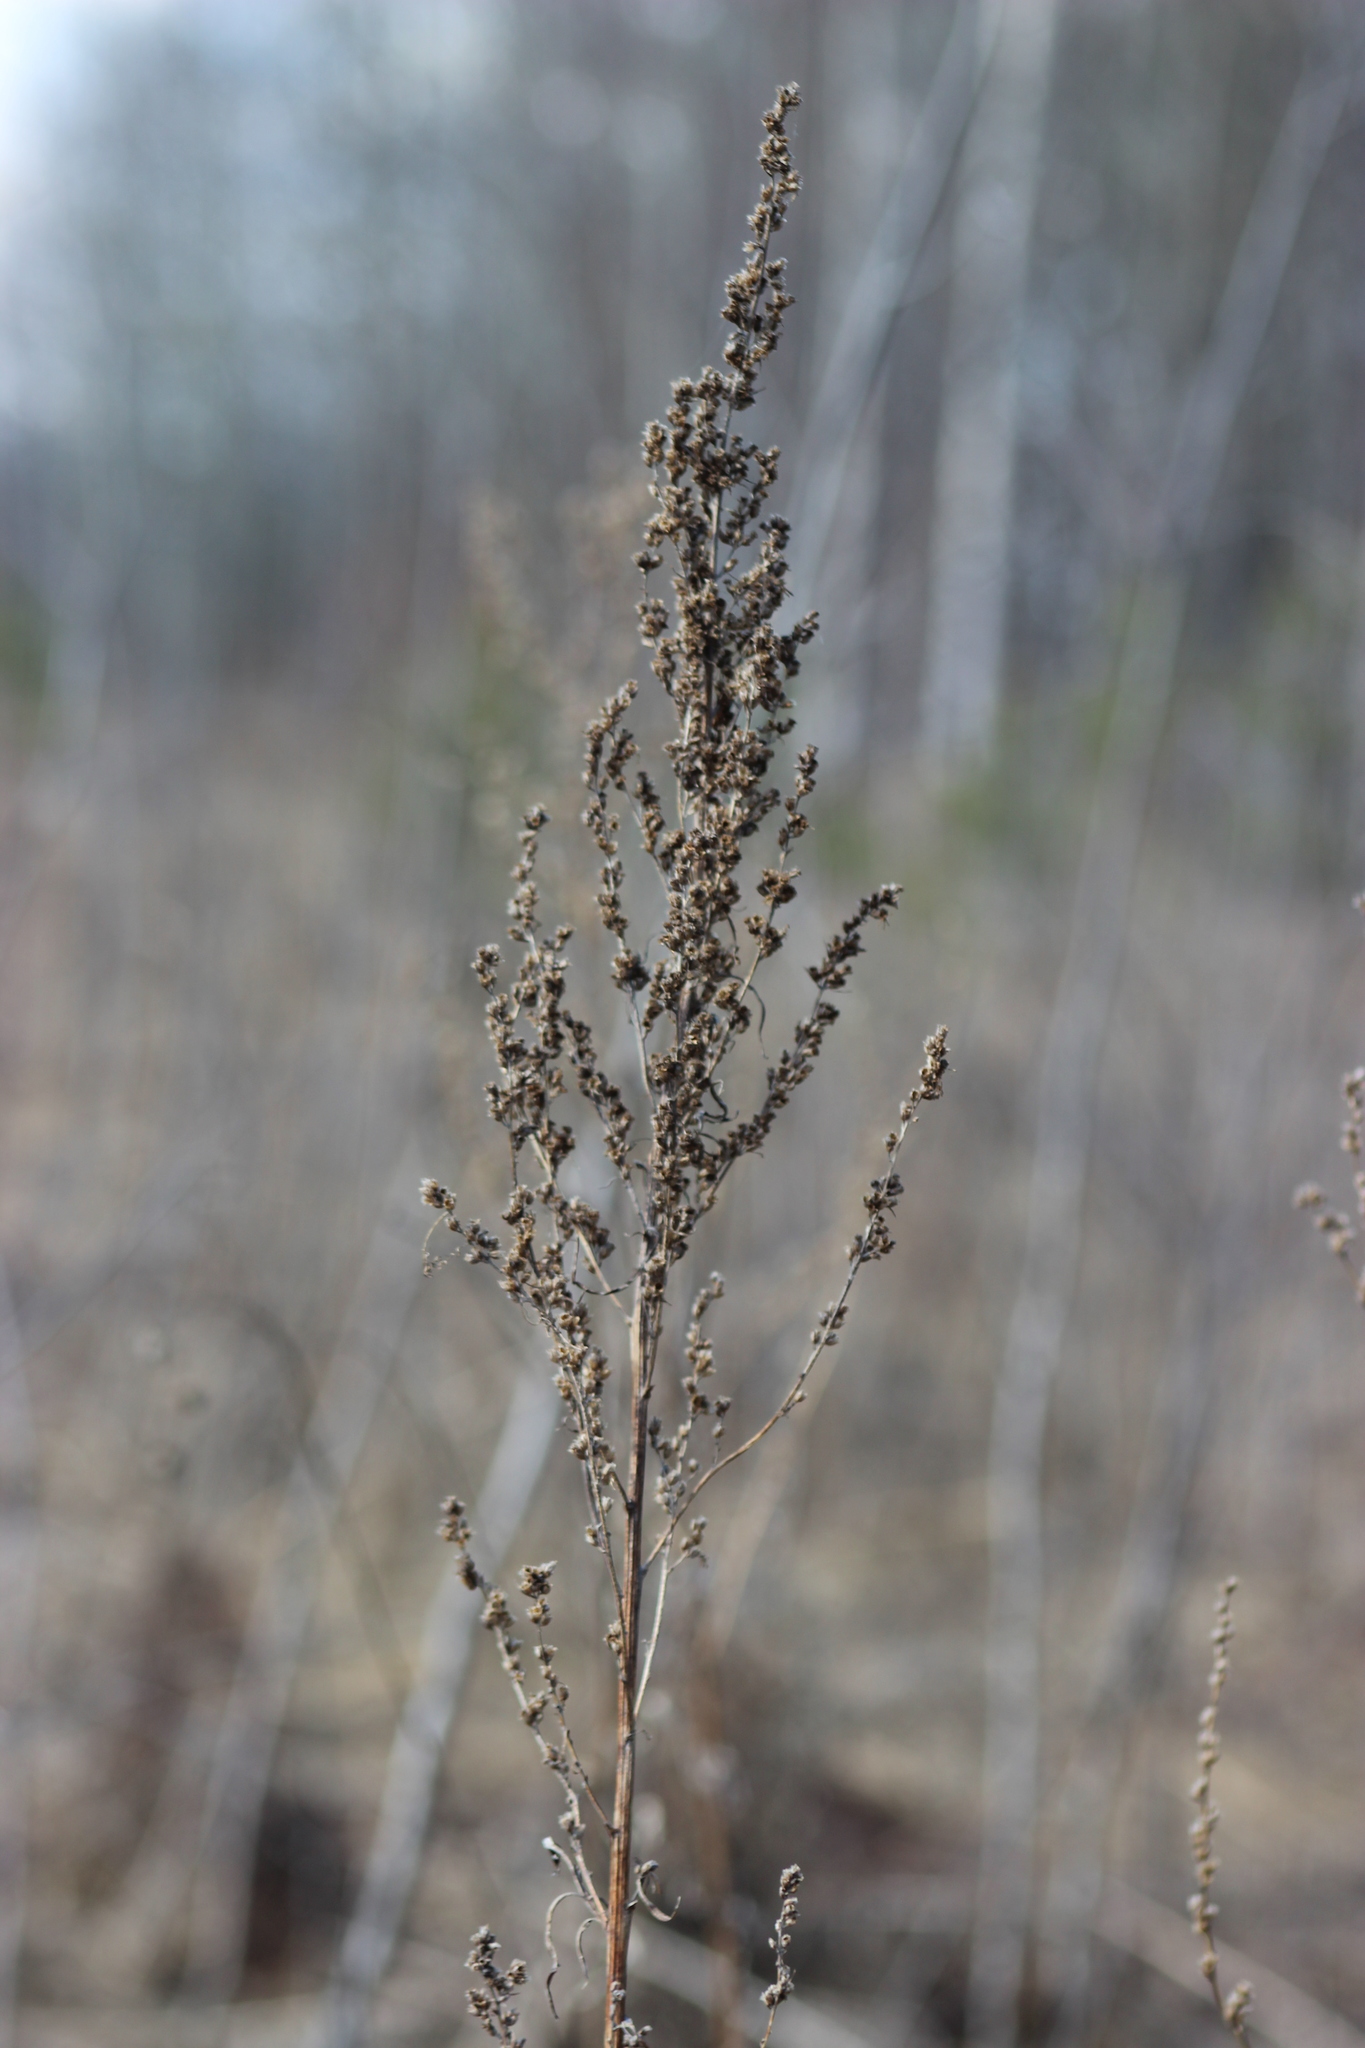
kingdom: Plantae
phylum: Tracheophyta
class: Magnoliopsida
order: Asterales
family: Asteraceae
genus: Artemisia
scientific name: Artemisia vulgaris
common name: Mugwort
